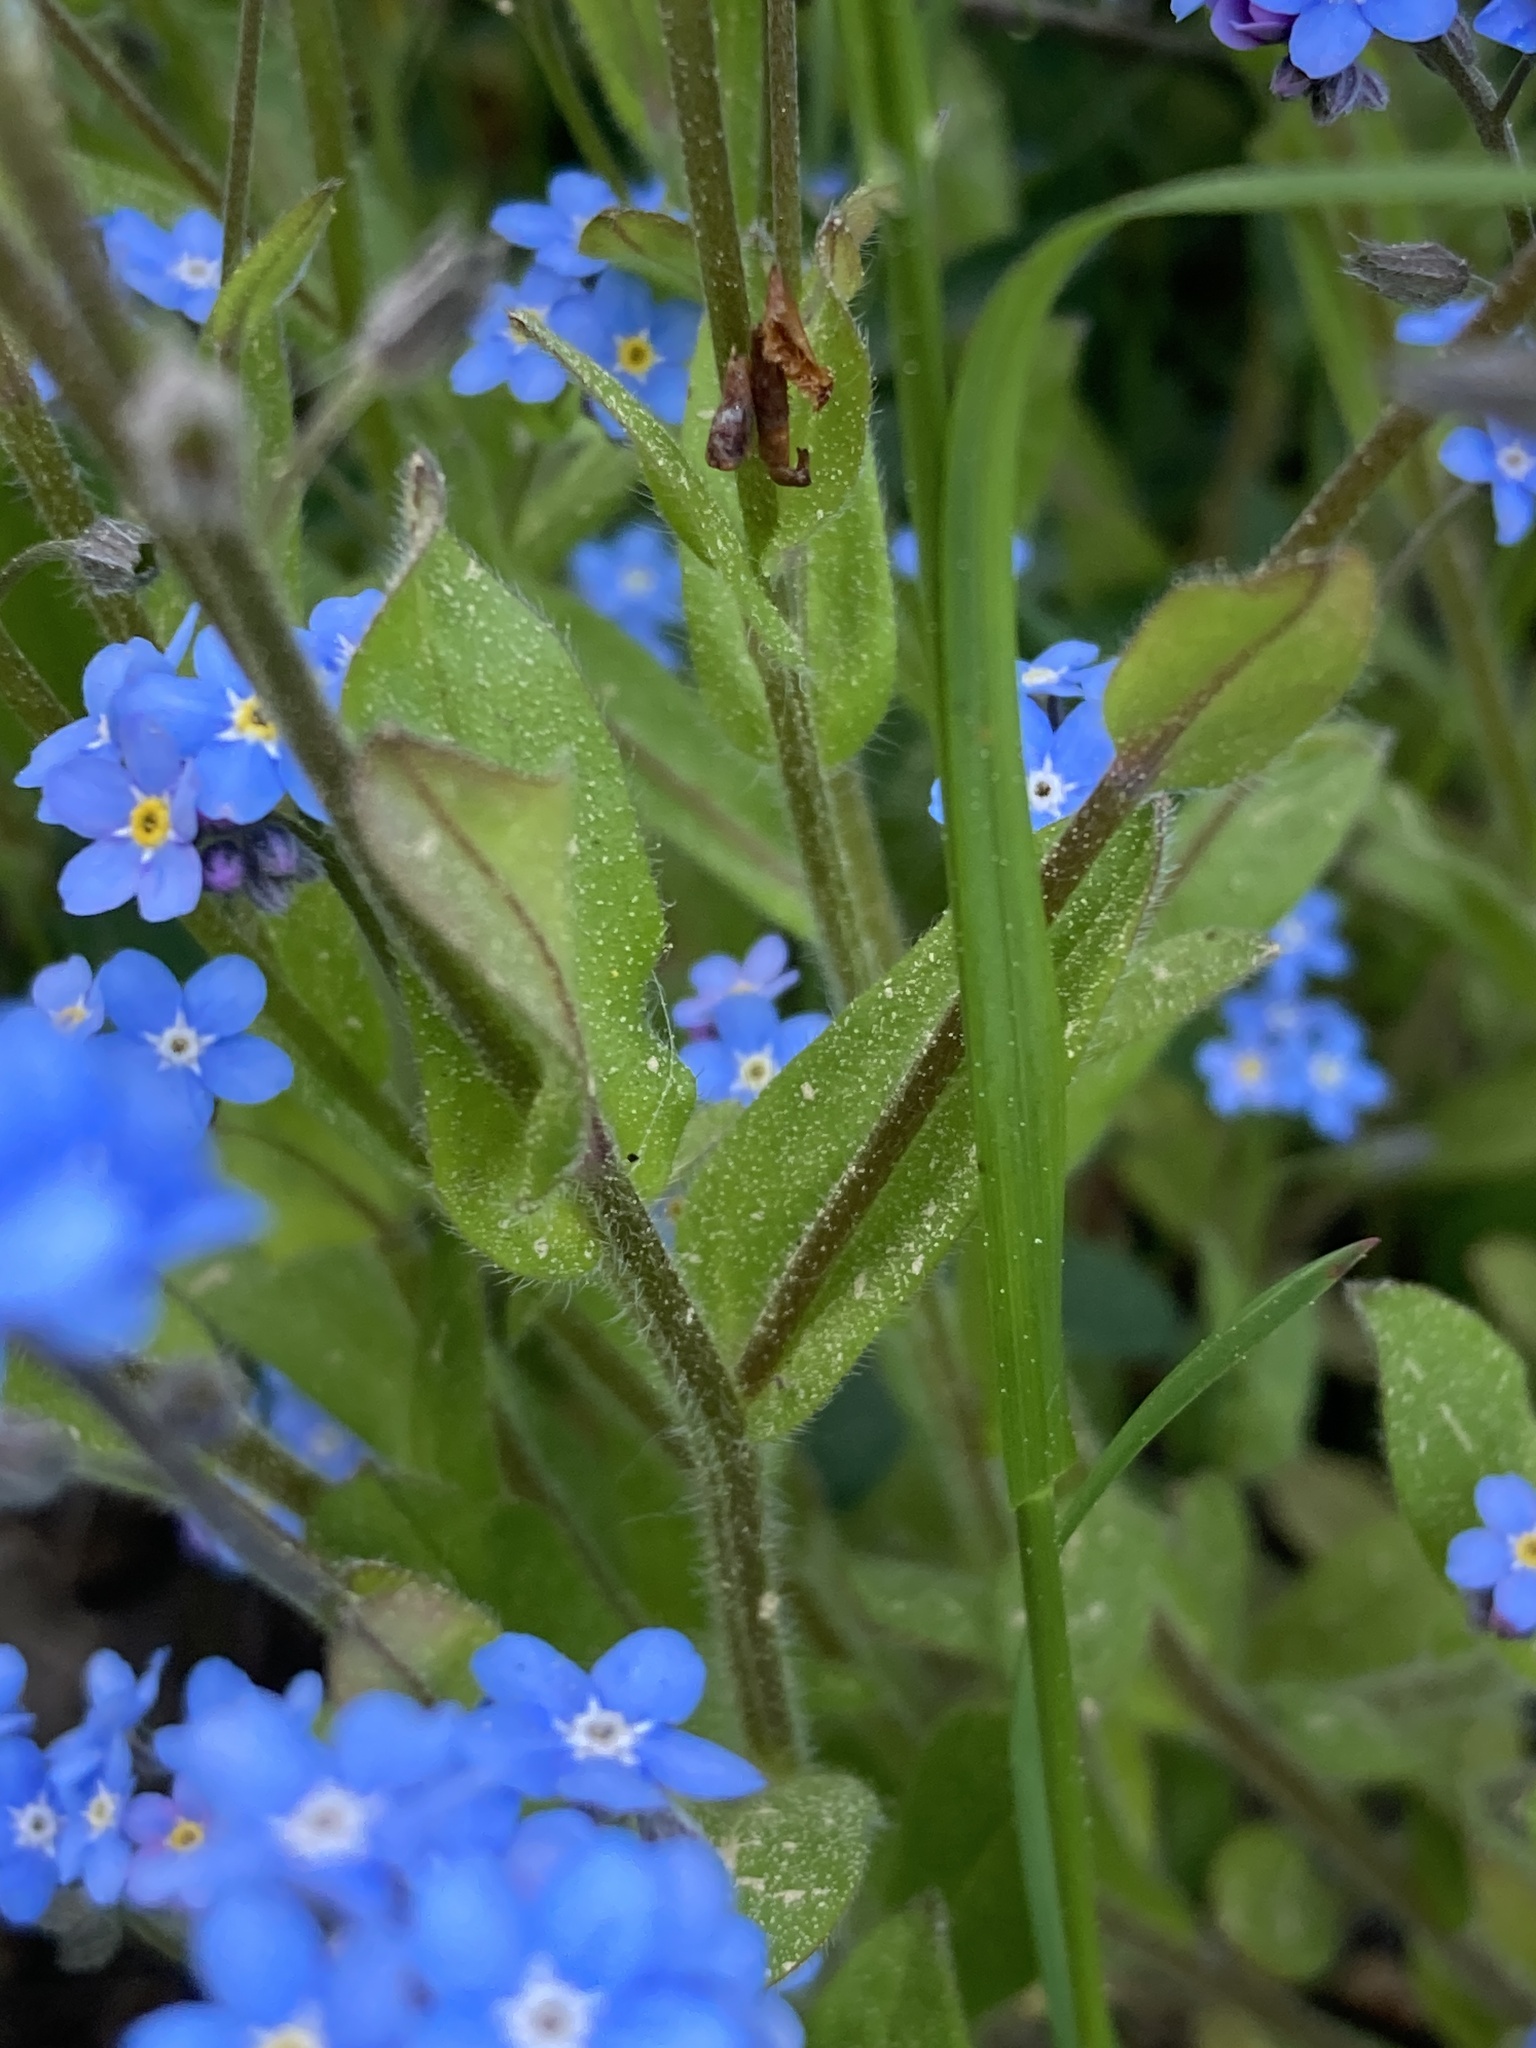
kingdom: Plantae
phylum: Tracheophyta
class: Magnoliopsida
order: Boraginales
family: Boraginaceae
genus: Myosotis
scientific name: Myosotis sylvatica
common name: Wood forget-me-not
